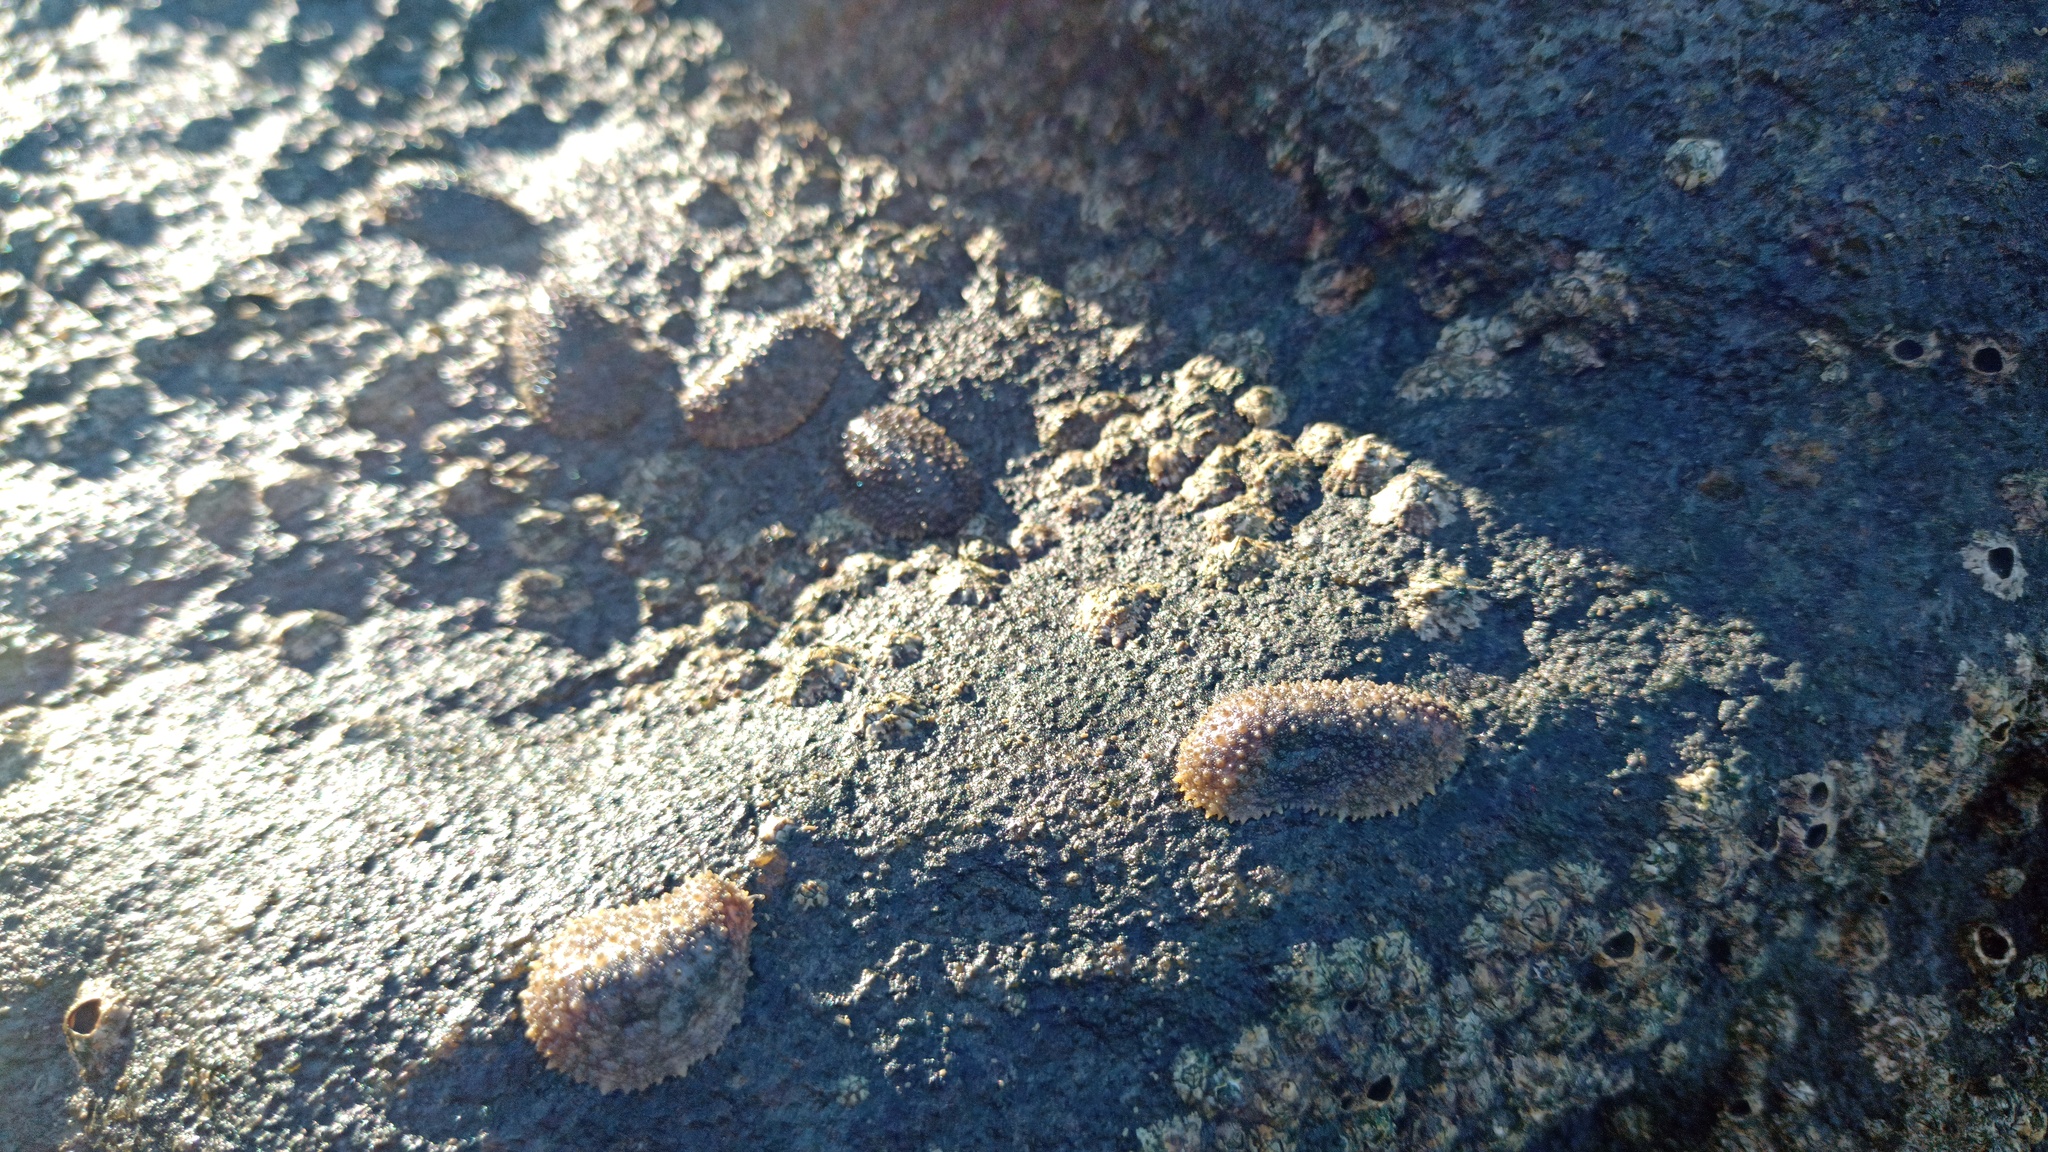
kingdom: Animalia
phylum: Mollusca
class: Gastropoda
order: Systellommatophora
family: Onchidiidae
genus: Onchidella
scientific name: Onchidella incisa
